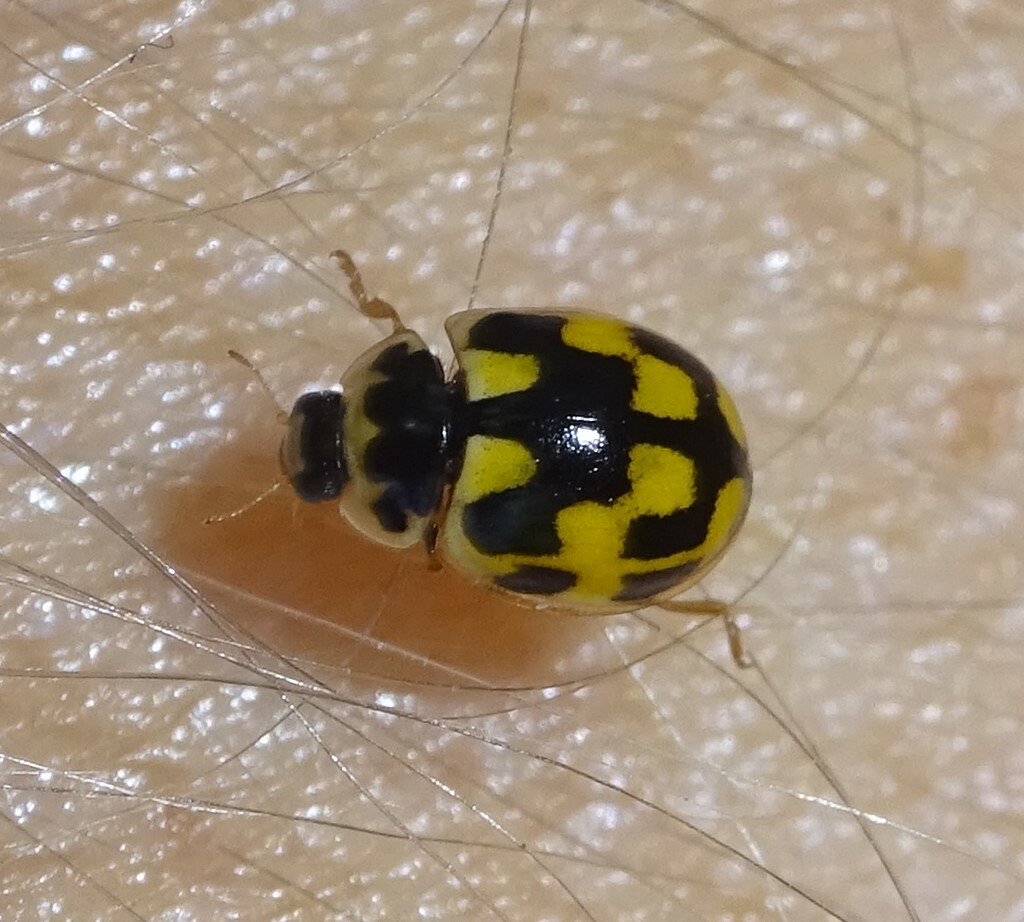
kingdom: Animalia
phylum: Arthropoda
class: Insecta
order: Coleoptera
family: Coccinellidae
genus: Propylaea
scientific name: Propylaea quatuordecimpunctata
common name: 14-spotted ladybird beetle
